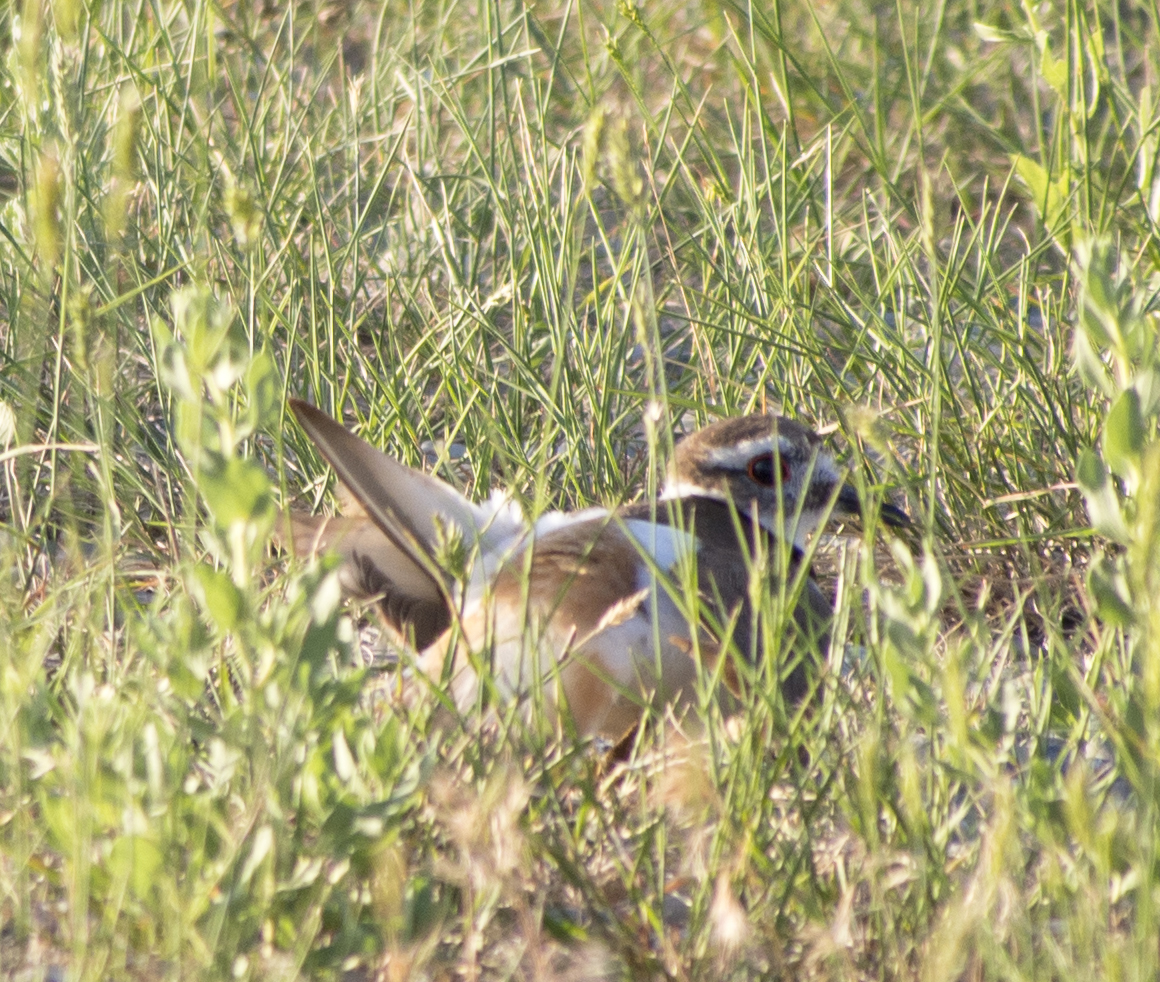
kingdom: Animalia
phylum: Chordata
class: Aves
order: Charadriiformes
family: Charadriidae
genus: Charadrius
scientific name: Charadrius vociferus
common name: Killdeer
